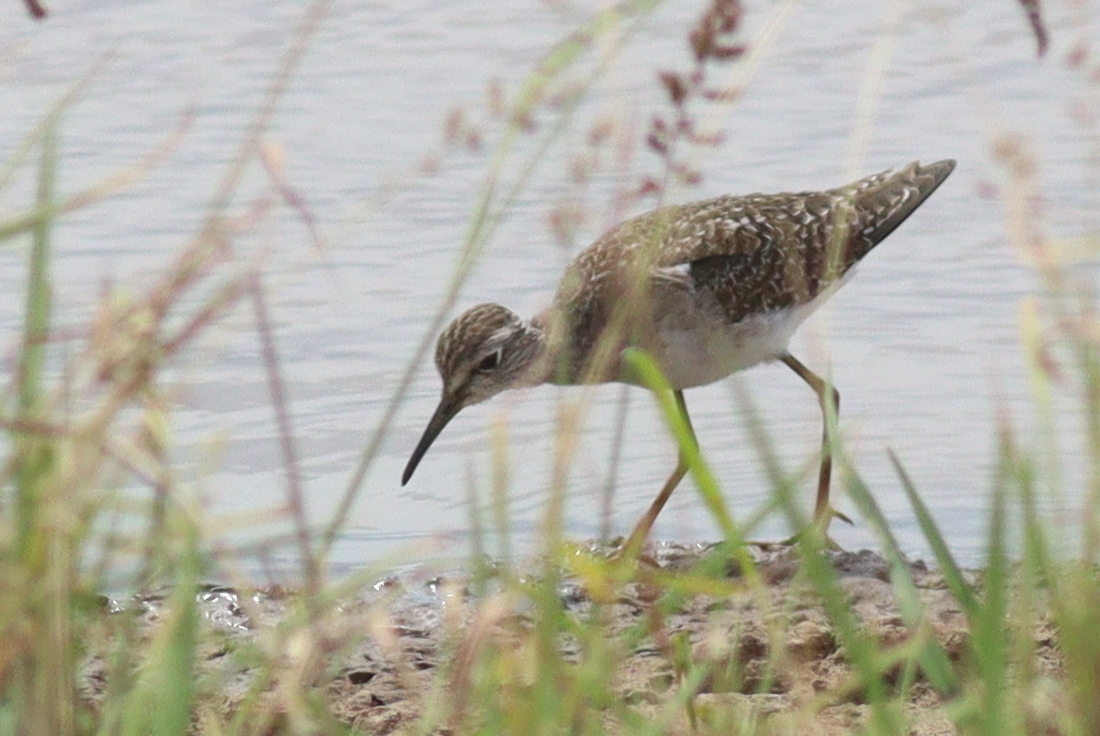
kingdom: Animalia
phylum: Chordata
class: Aves
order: Charadriiformes
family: Scolopacidae
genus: Tringa
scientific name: Tringa glareola
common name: Wood sandpiper
